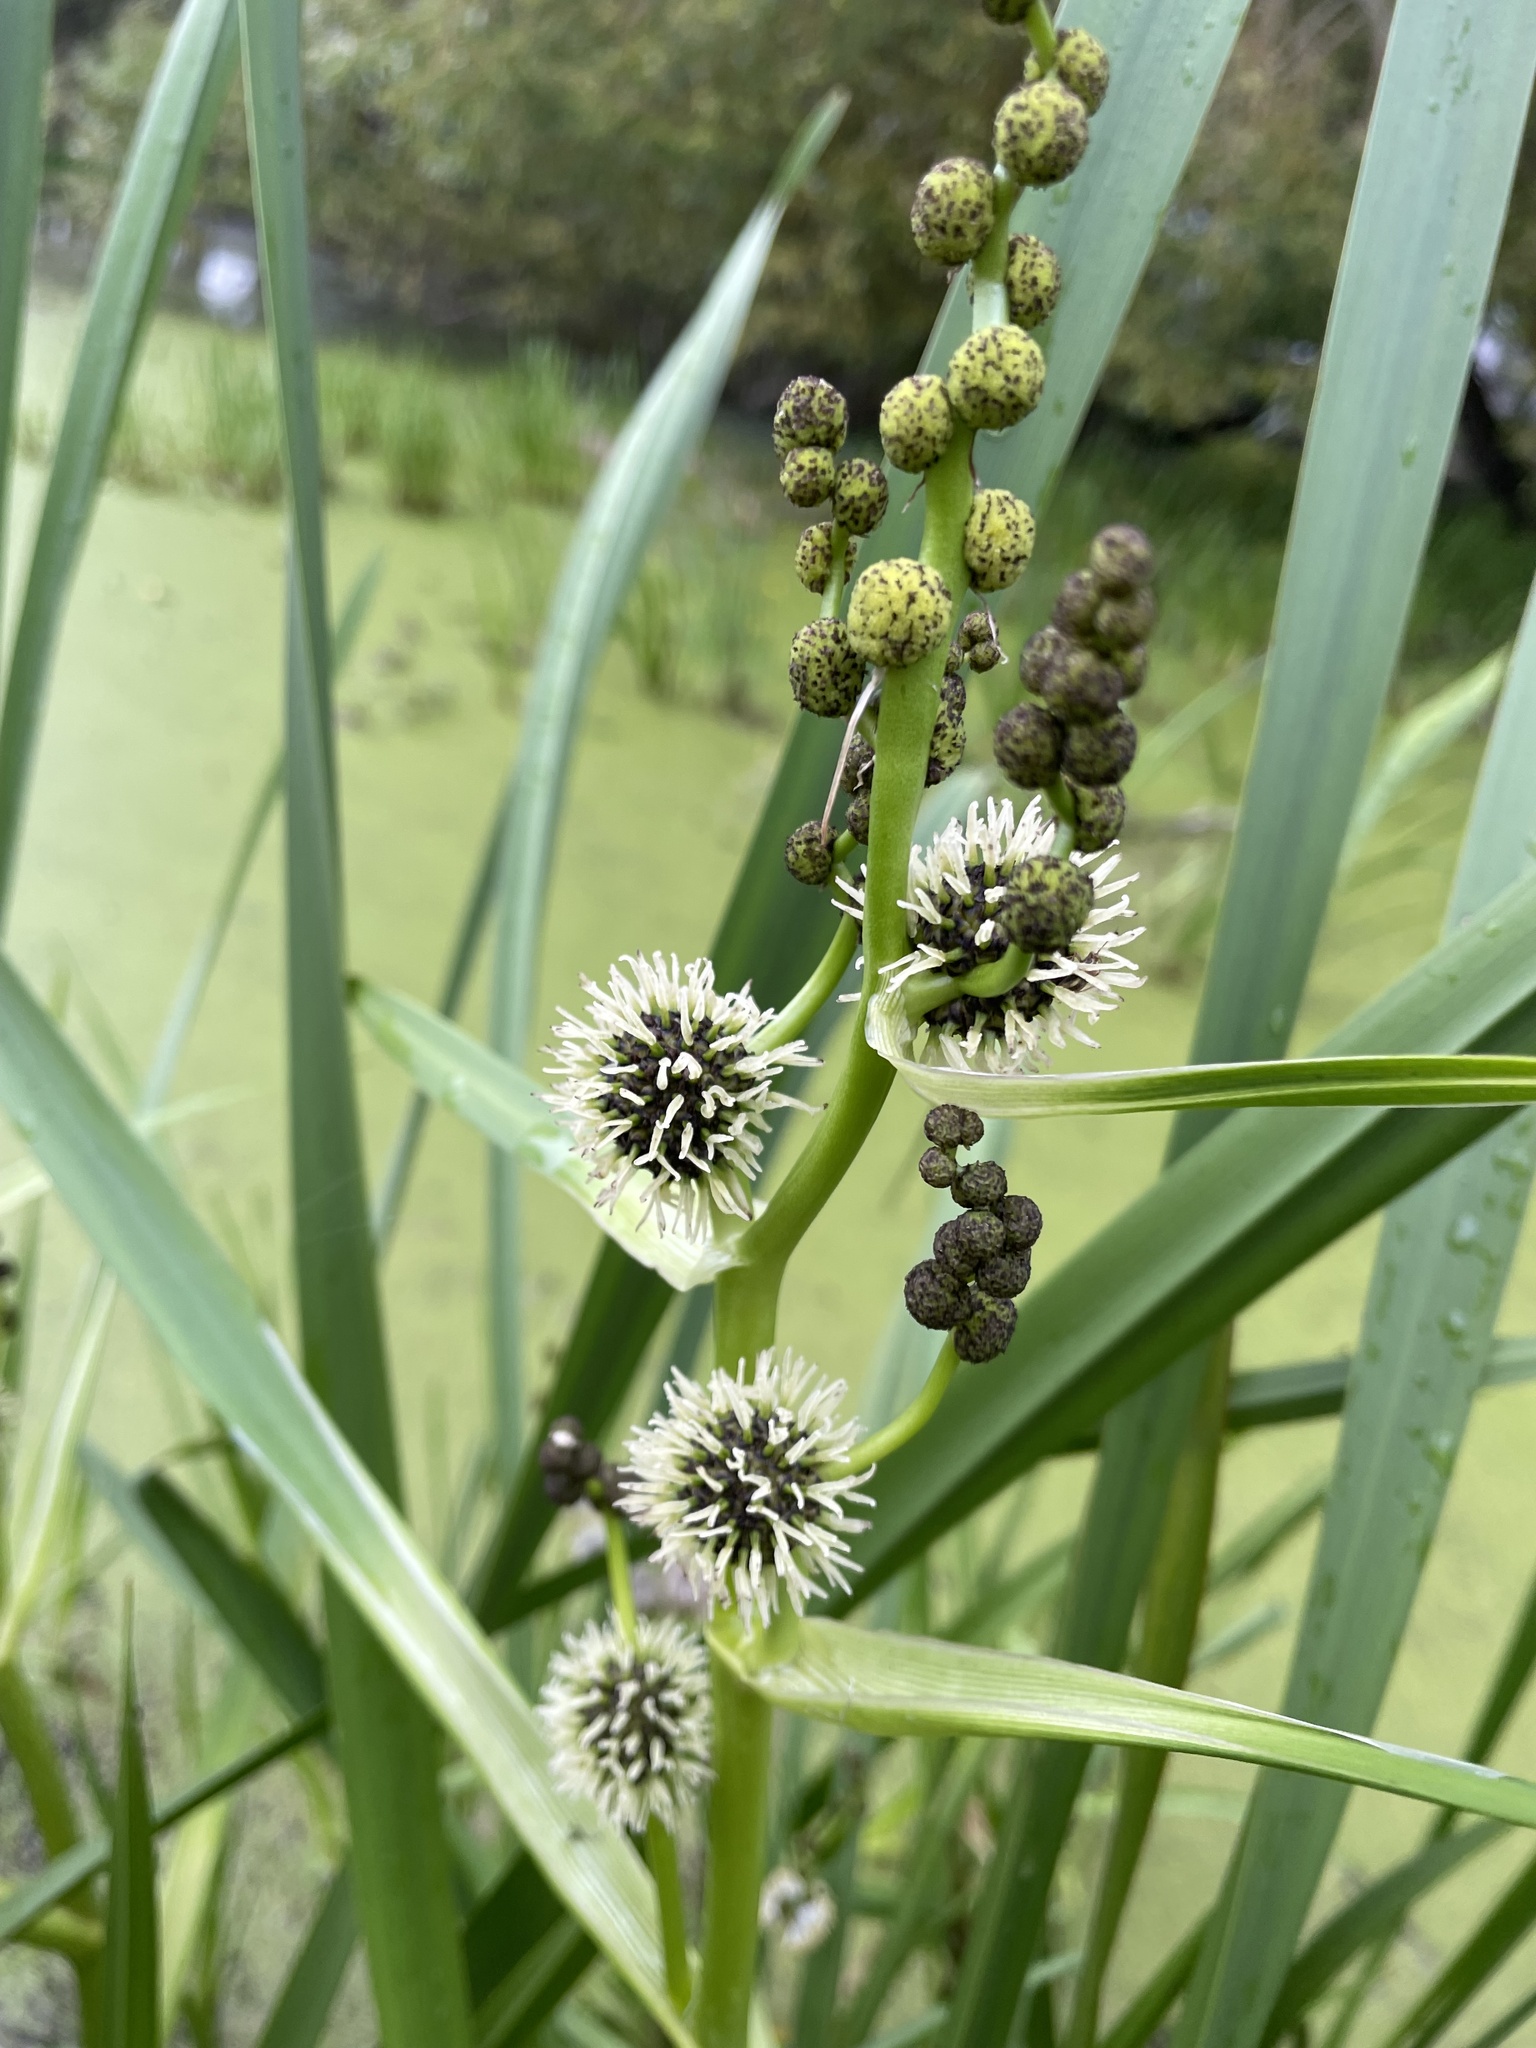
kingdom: Plantae
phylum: Tracheophyta
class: Liliopsida
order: Poales
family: Typhaceae
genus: Sparganium
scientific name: Sparganium eurycarpum
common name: Broad-fruited burreed
